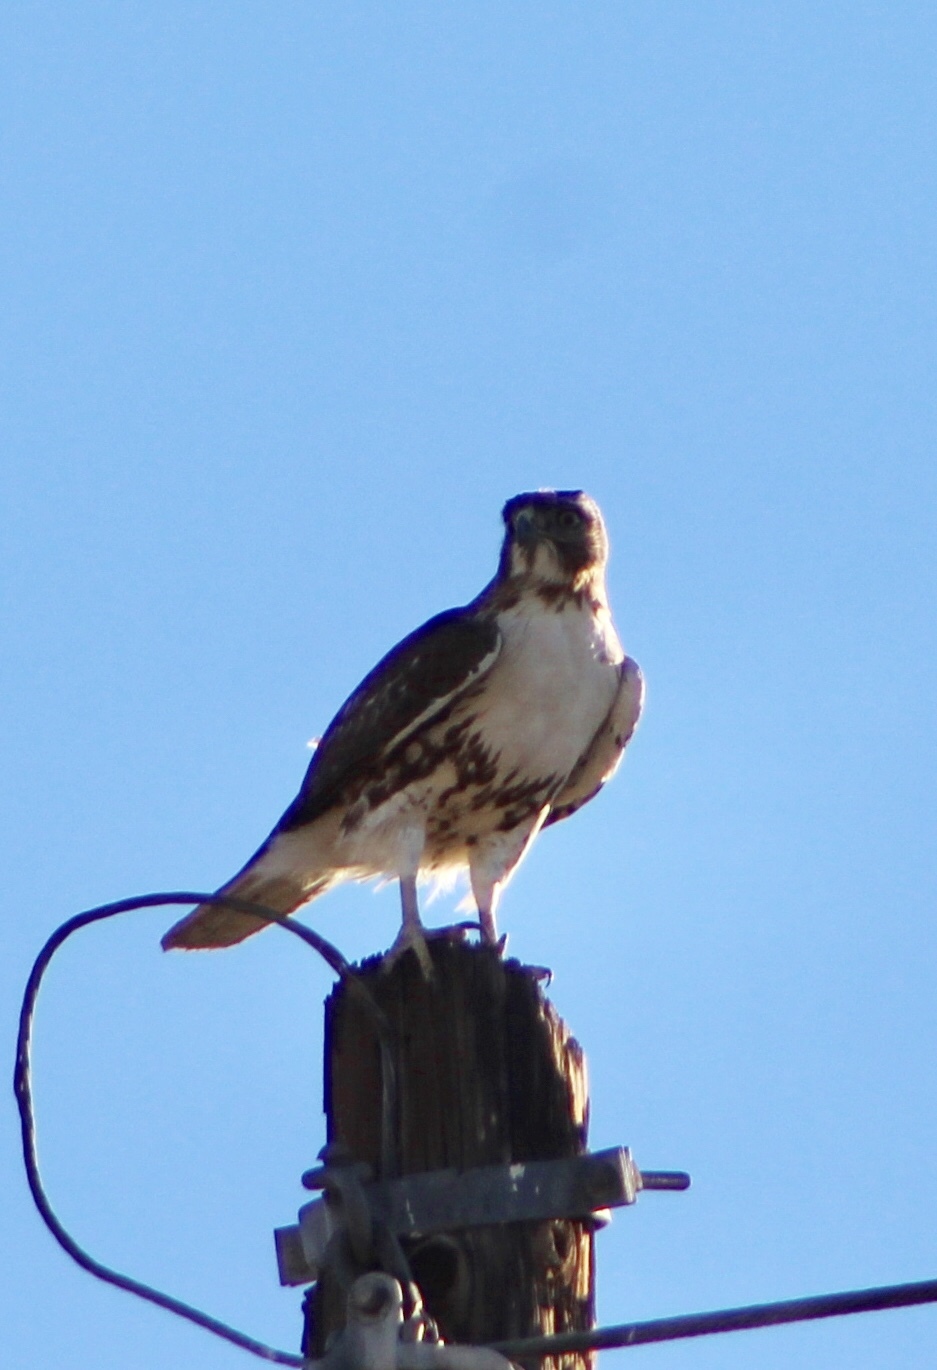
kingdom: Animalia
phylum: Chordata
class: Aves
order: Accipitriformes
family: Accipitridae
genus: Buteo
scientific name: Buteo jamaicensis
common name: Red-tailed hawk
